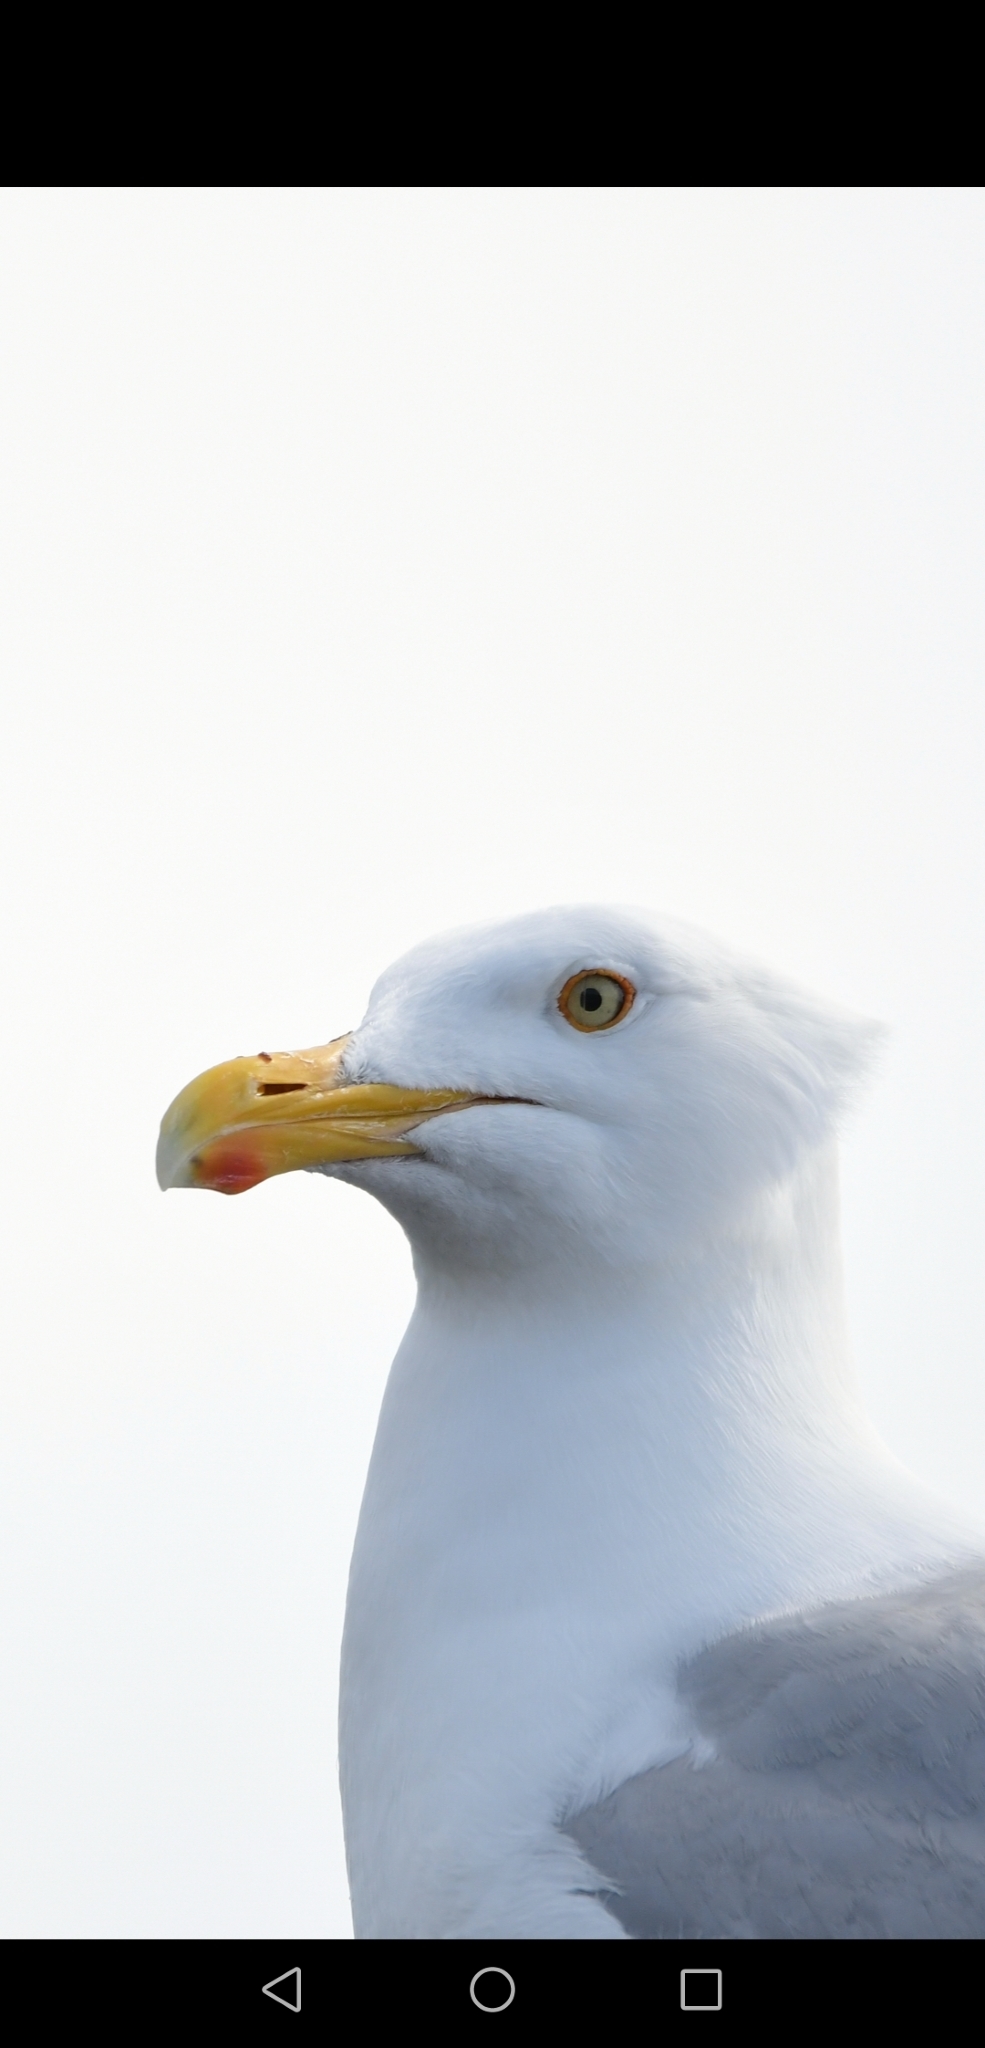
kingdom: Animalia
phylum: Chordata
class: Aves
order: Charadriiformes
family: Laridae
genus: Larus
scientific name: Larus argentatus
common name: Herring gull
